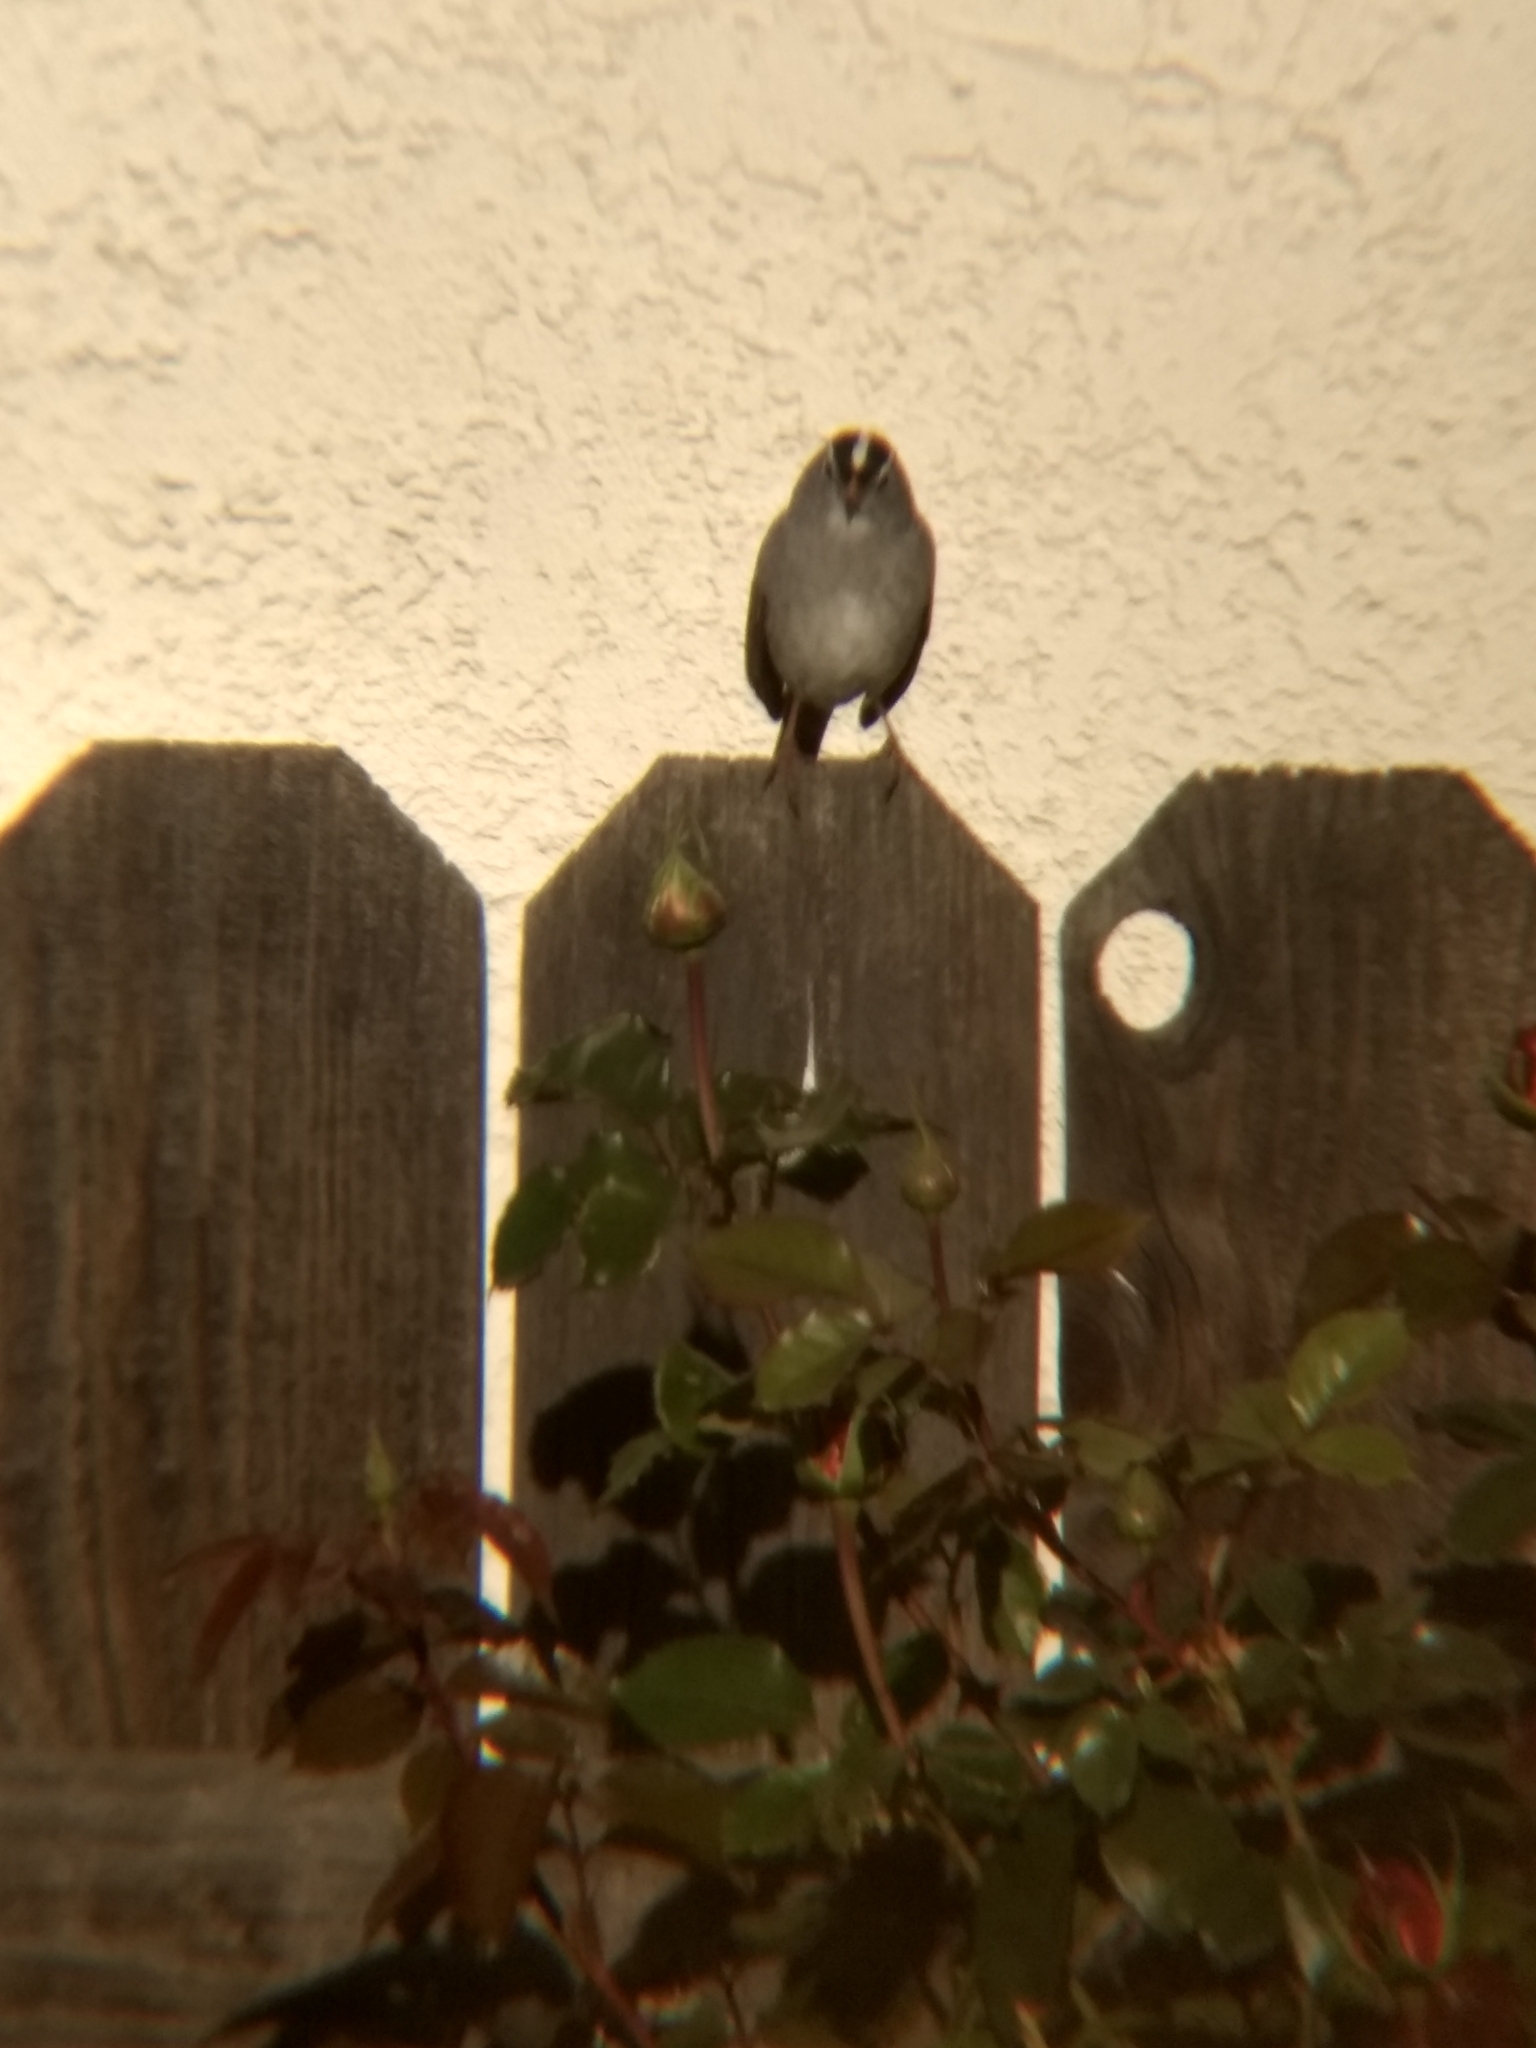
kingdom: Animalia
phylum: Chordata
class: Aves
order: Passeriformes
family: Passerellidae
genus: Zonotrichia
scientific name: Zonotrichia leucophrys
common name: White-crowned sparrow
